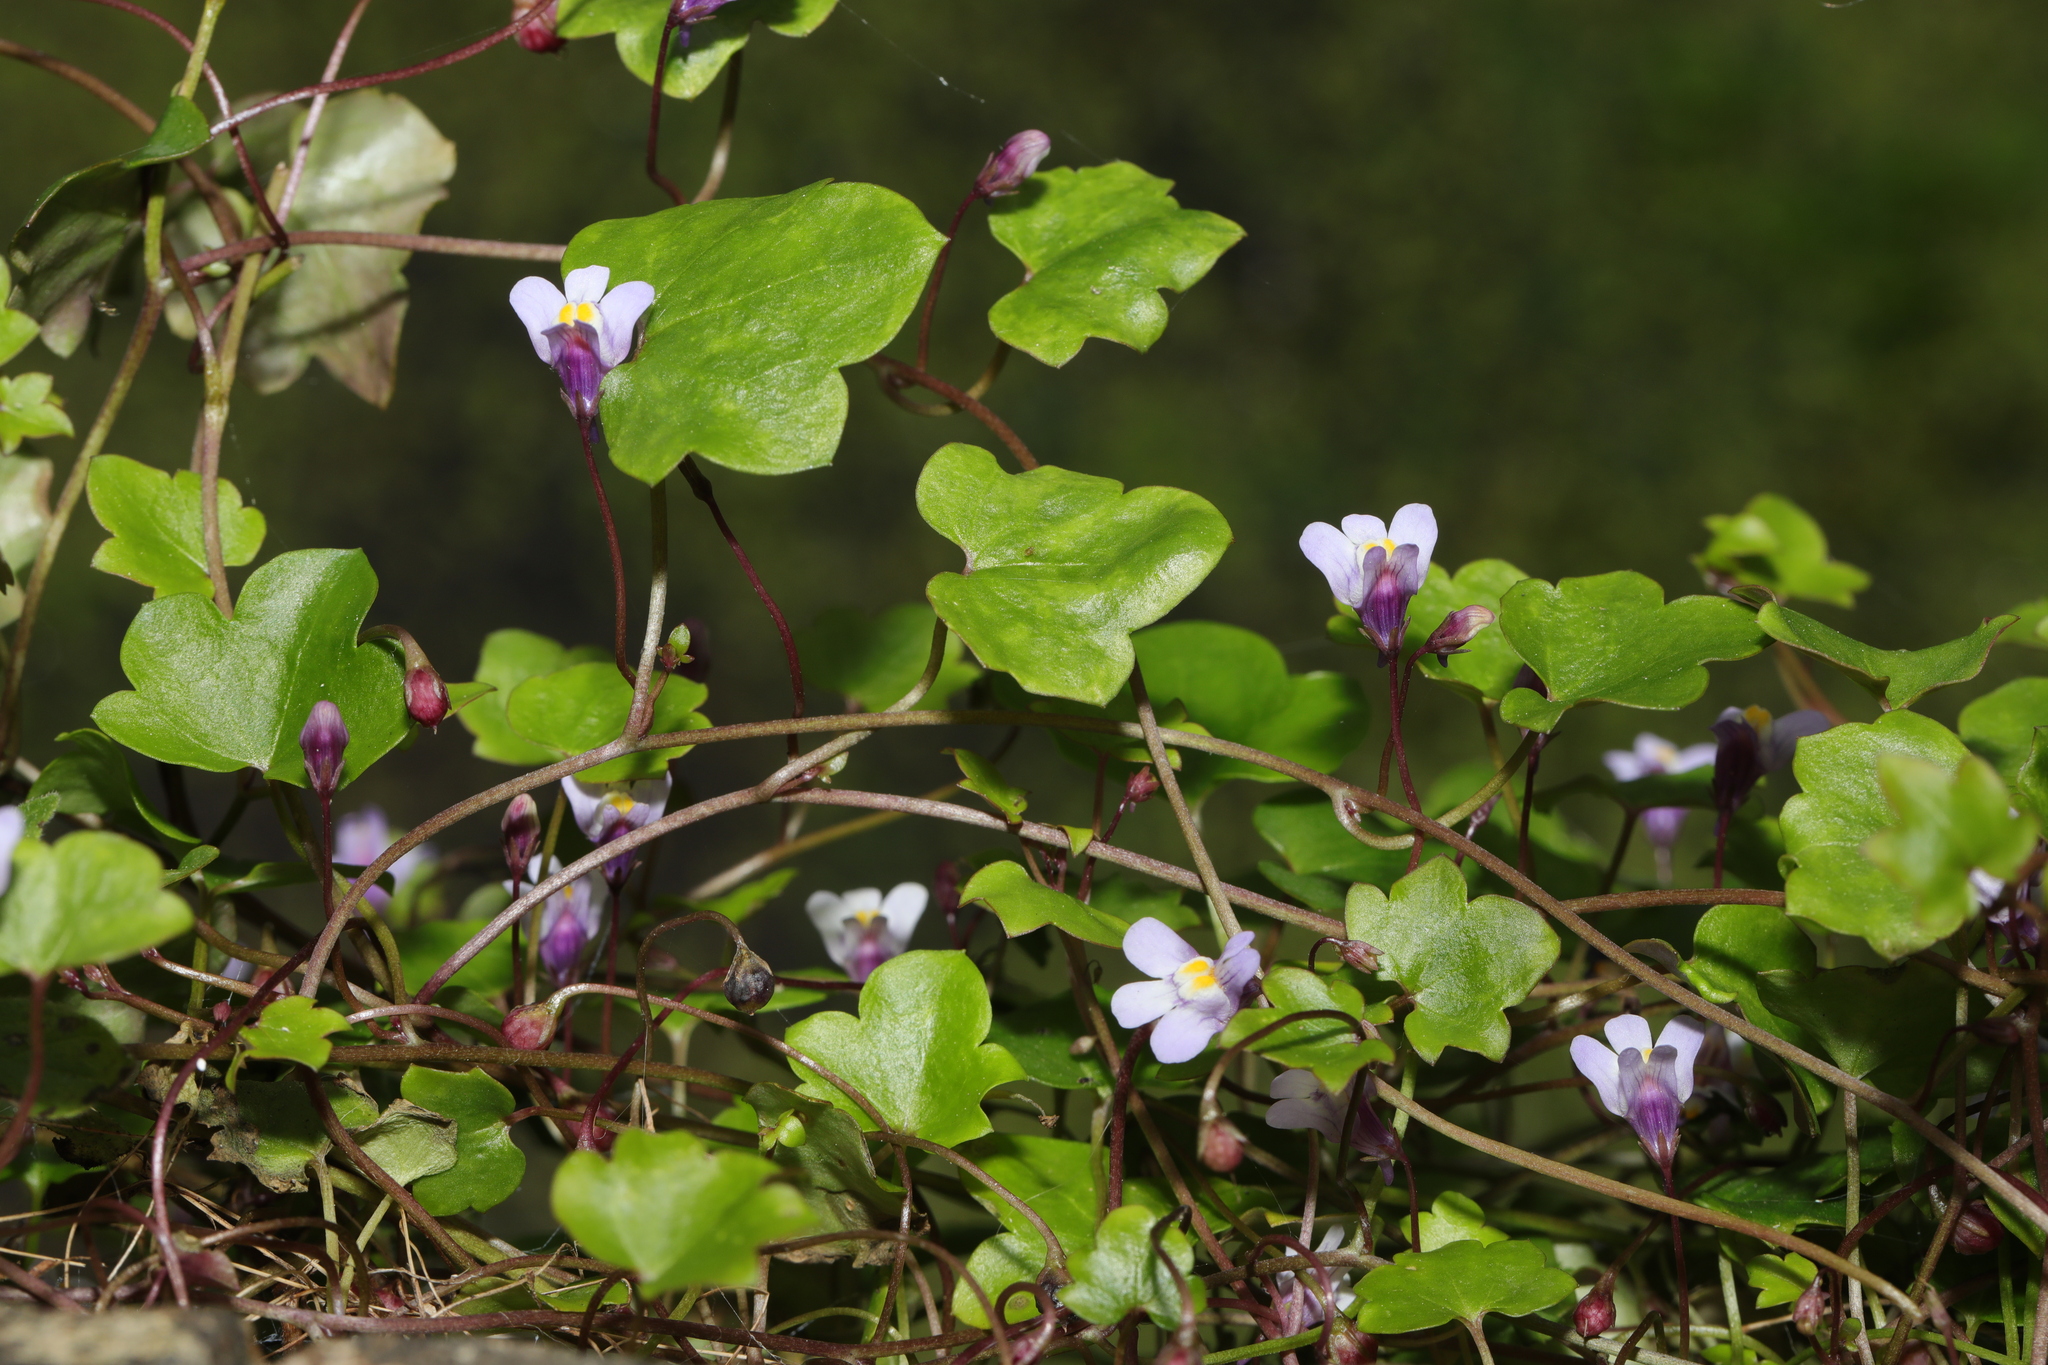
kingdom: Plantae
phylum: Tracheophyta
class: Magnoliopsida
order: Lamiales
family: Plantaginaceae
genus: Cymbalaria
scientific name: Cymbalaria muralis
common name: Ivy-leaved toadflax
